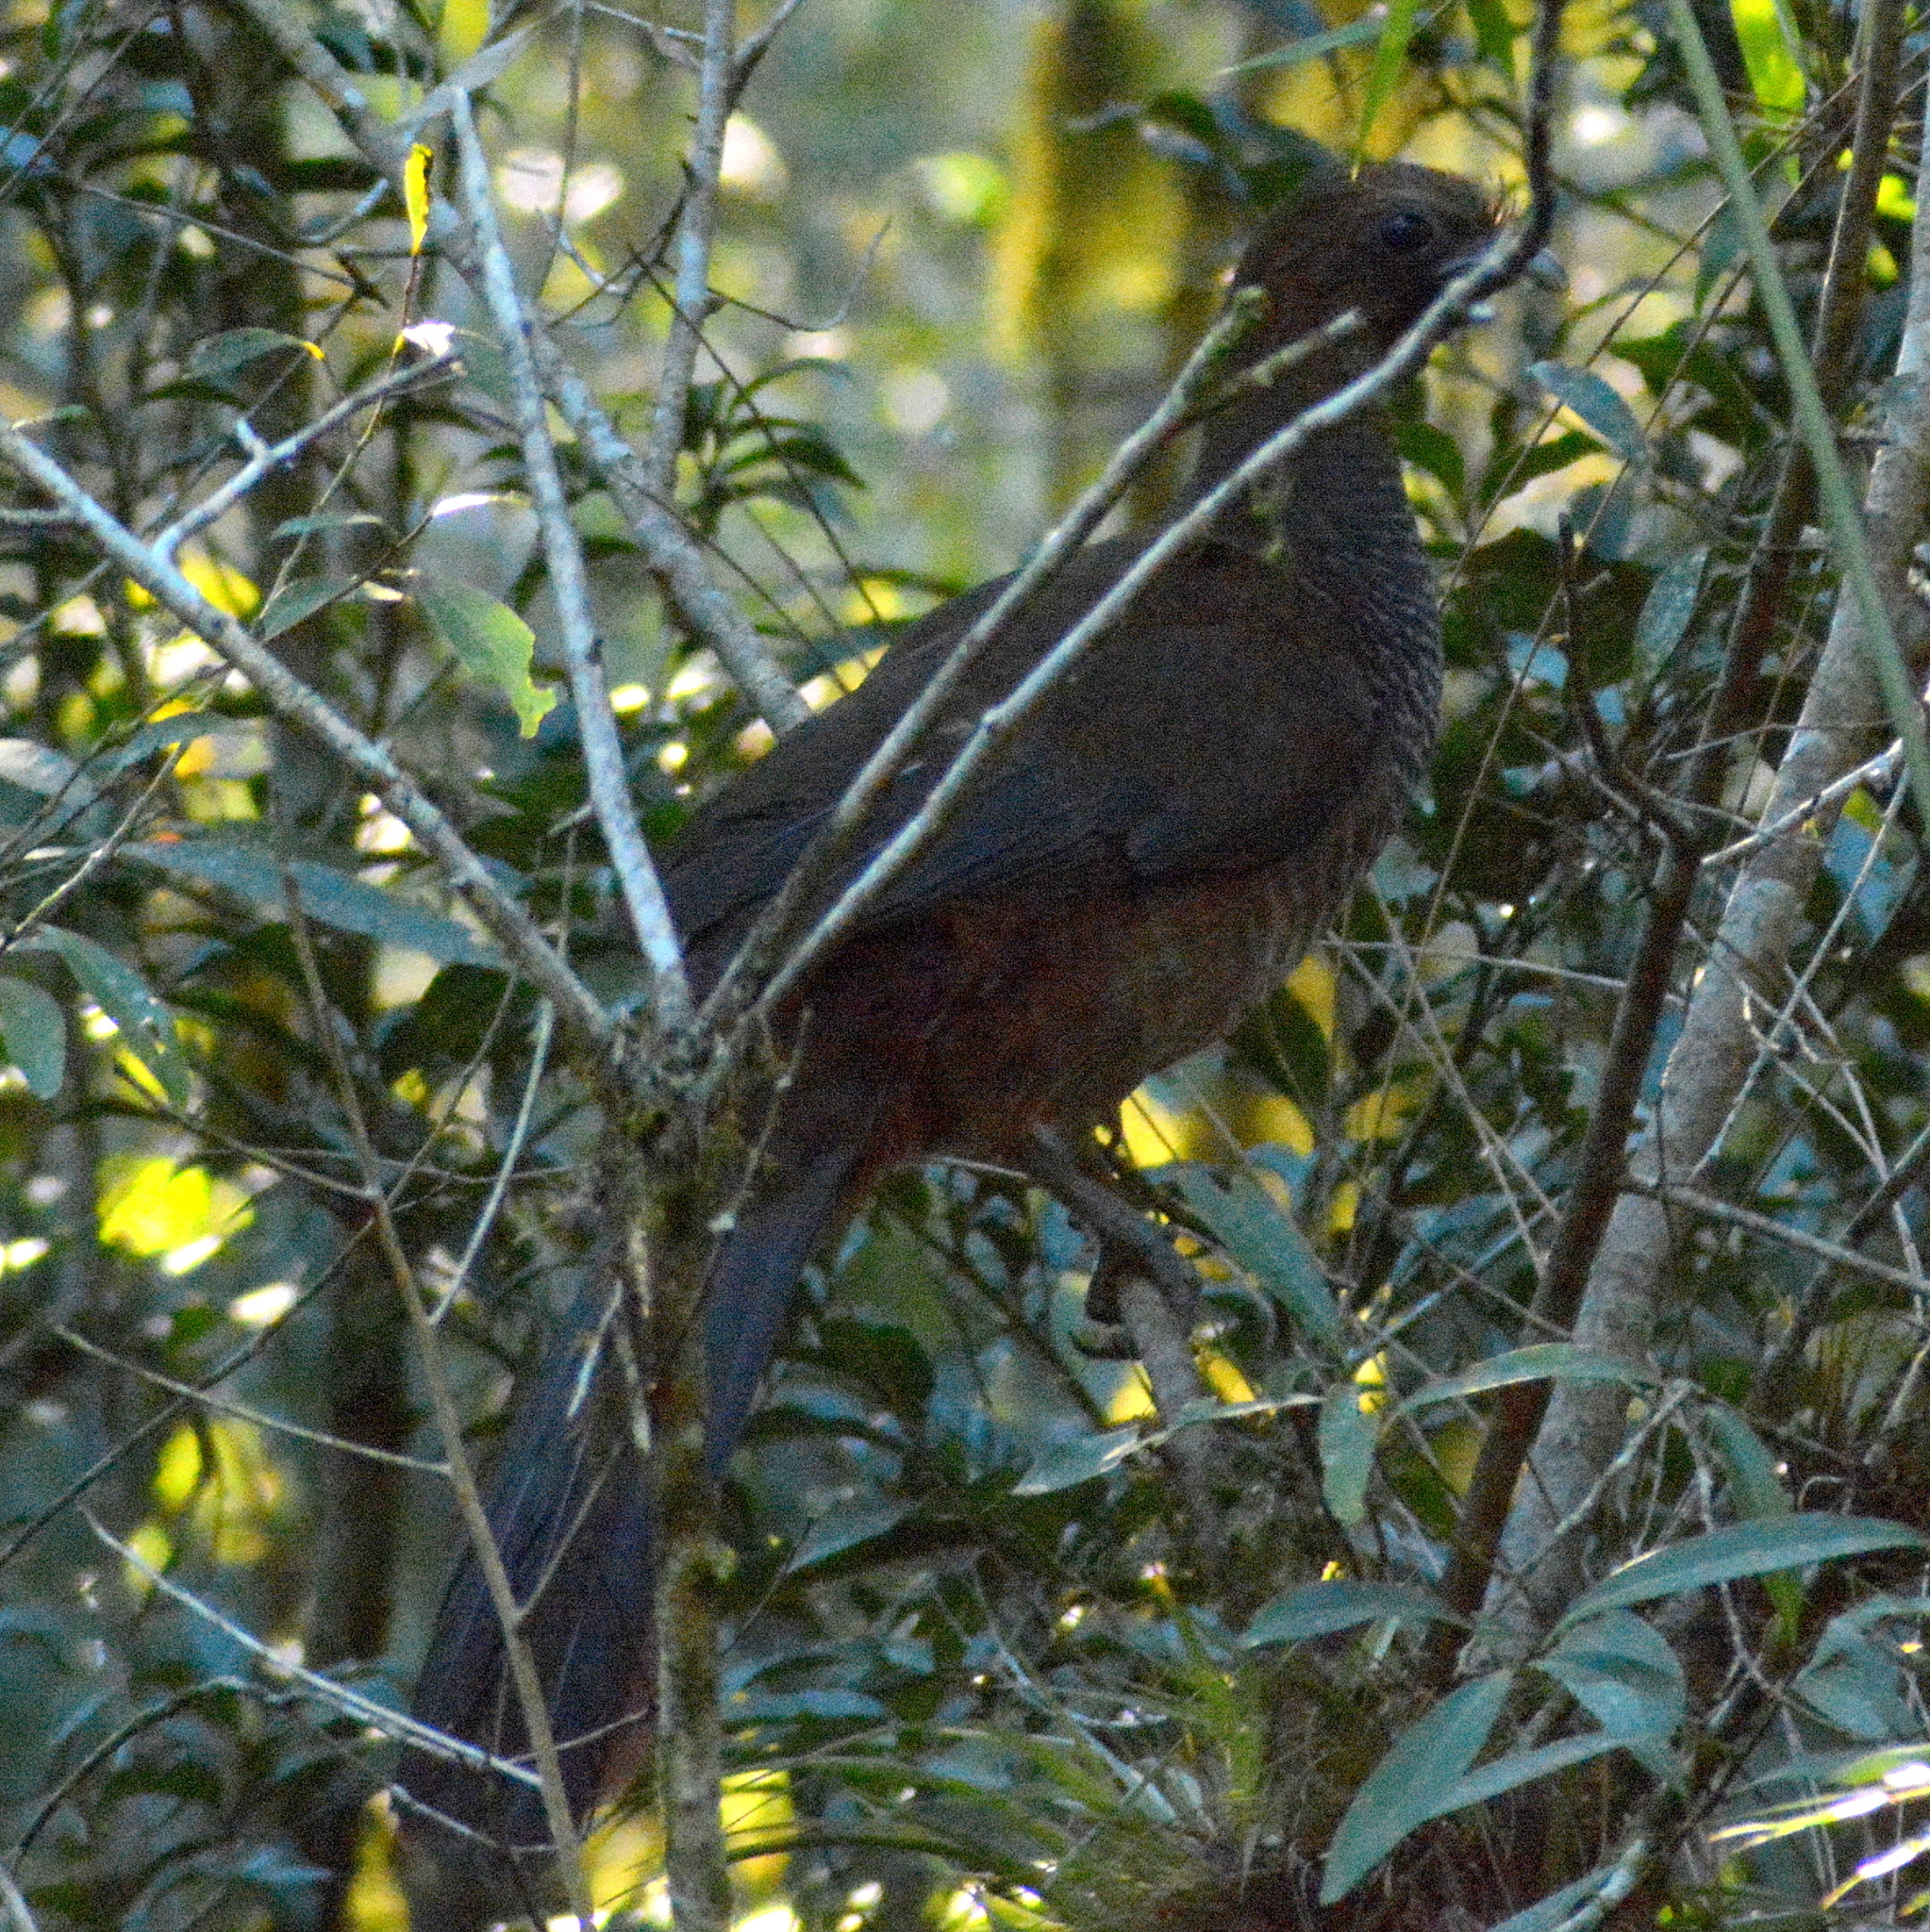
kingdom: Animalia
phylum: Chordata
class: Aves
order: Galliformes
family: Cracidae
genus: Ortalis
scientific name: Ortalis squamata
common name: Scaled chachalaca
